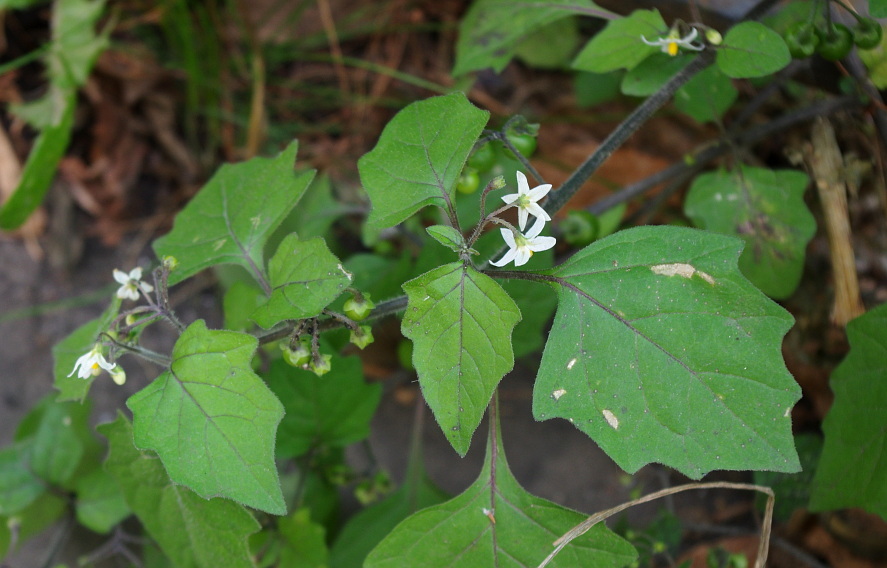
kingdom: Plantae
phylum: Tracheophyta
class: Magnoliopsida
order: Solanales
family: Solanaceae
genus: Solanum
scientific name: Solanum nigrum
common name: Black nightshade
